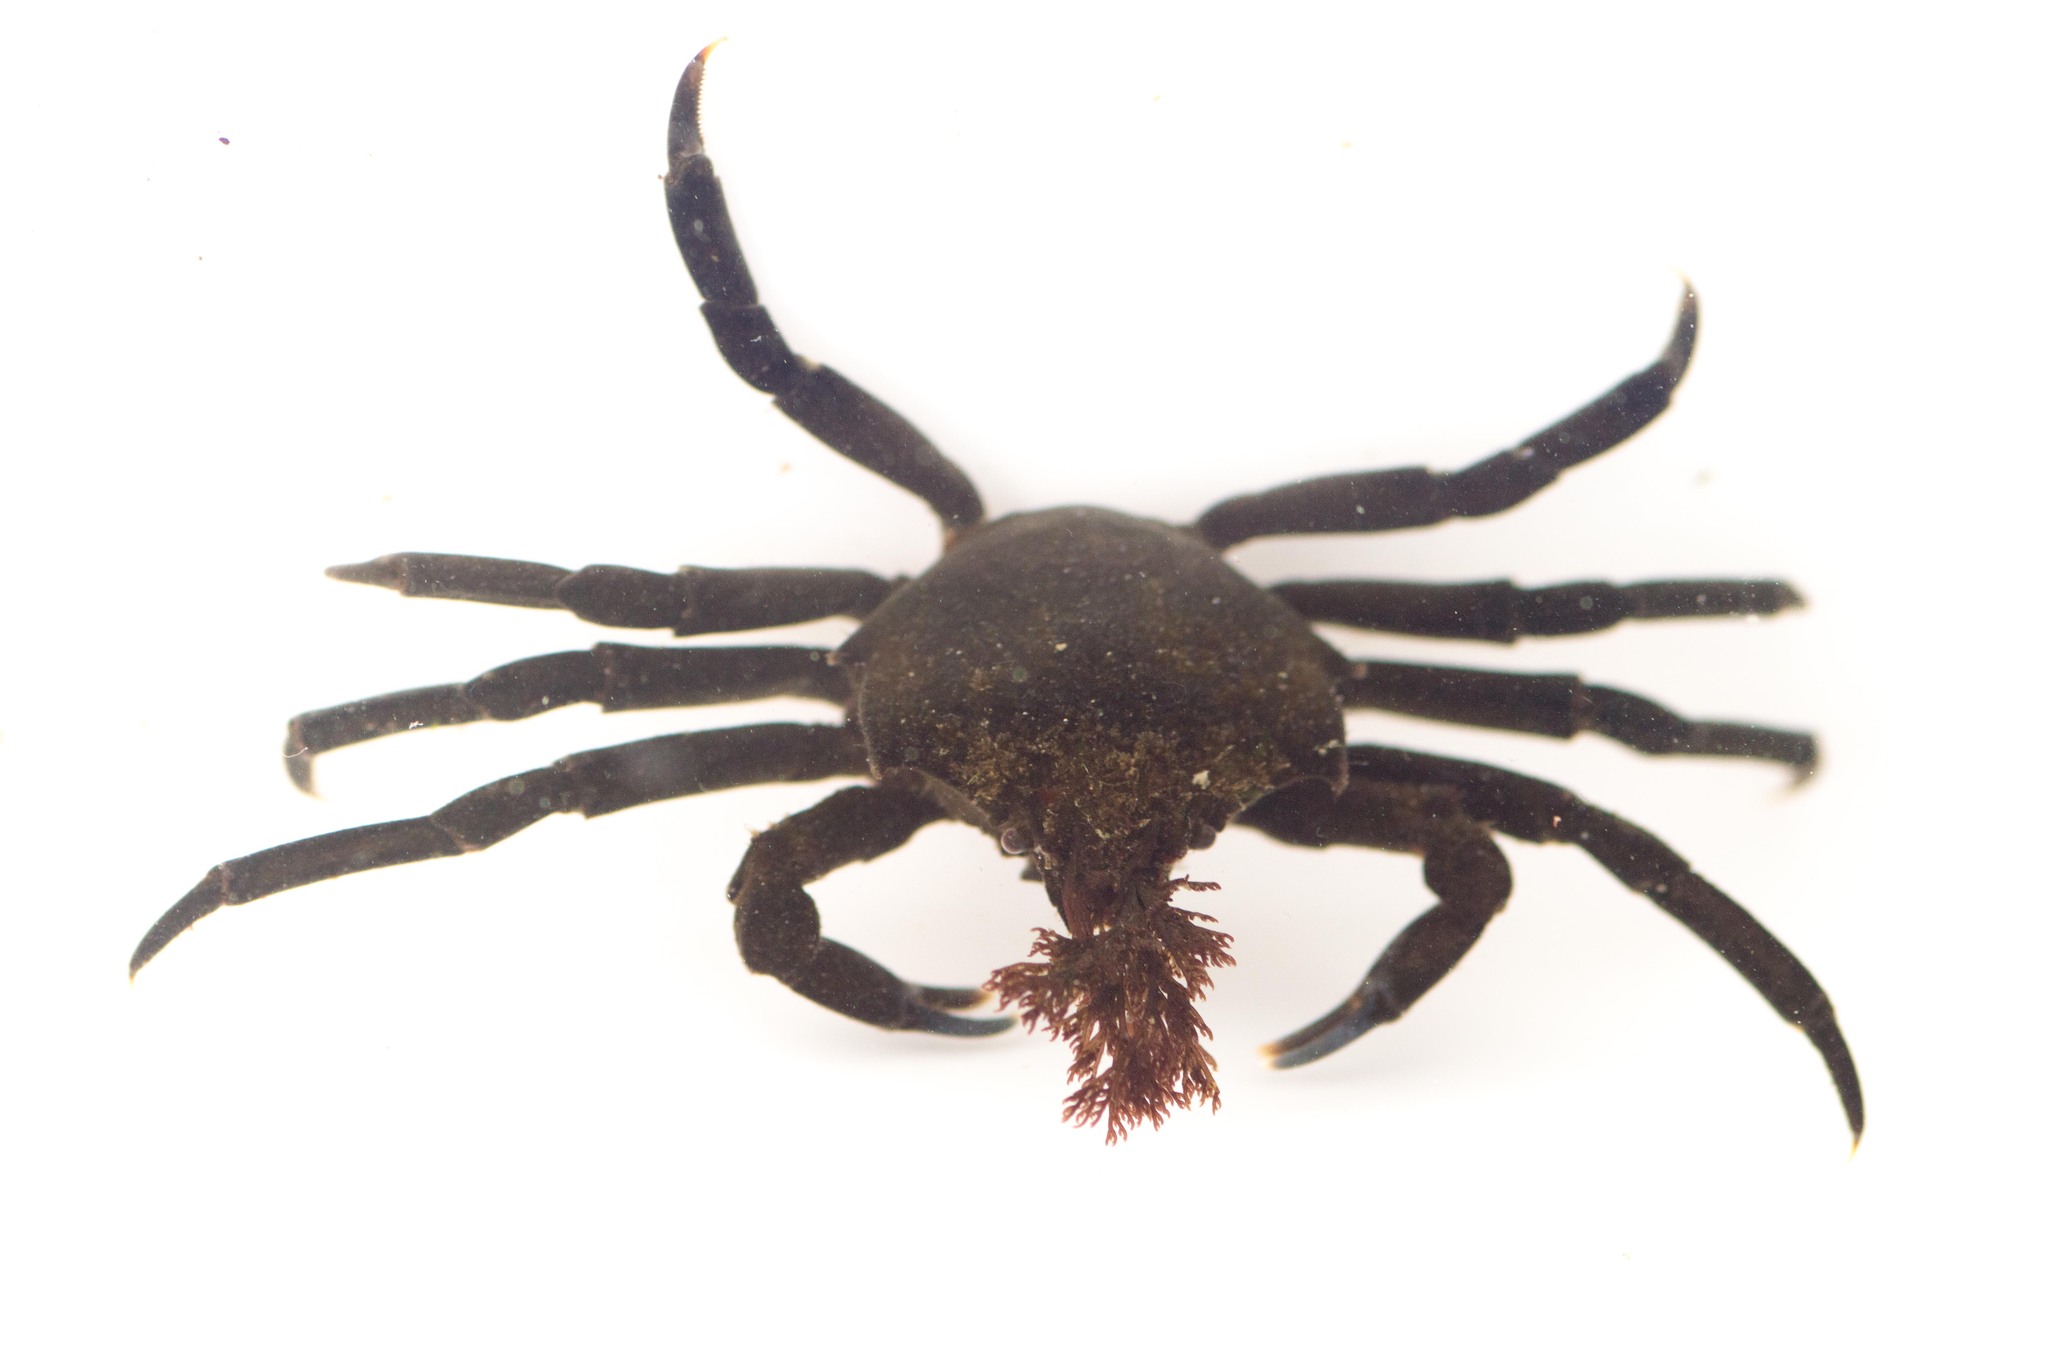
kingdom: Animalia
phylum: Arthropoda
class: Malacostraca
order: Decapoda
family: Epialtidae
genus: Pugettia
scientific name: Pugettia producta
